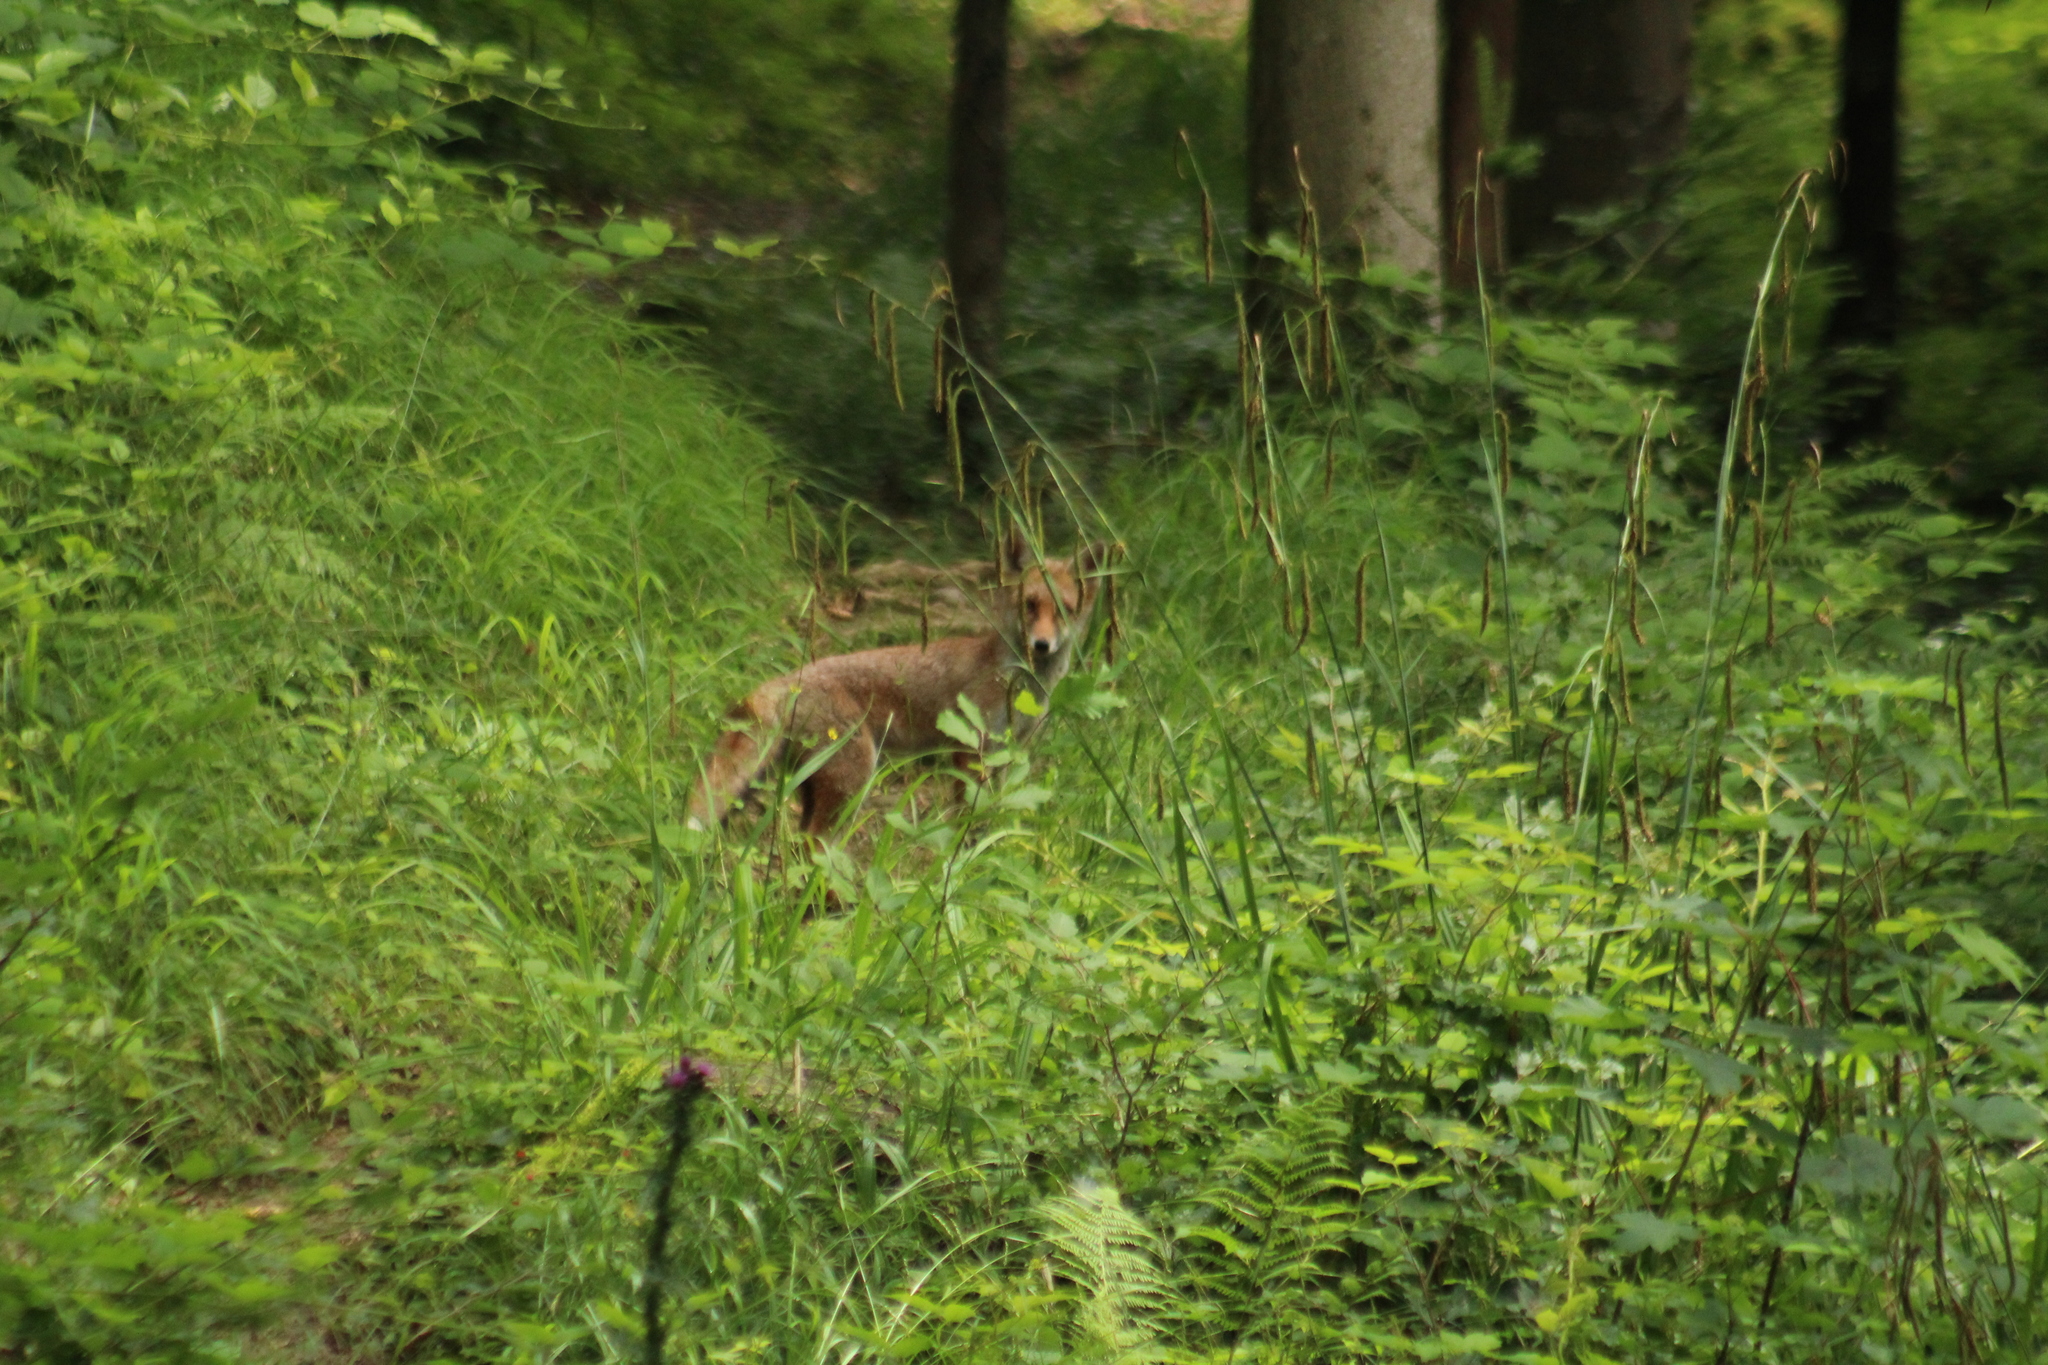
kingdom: Animalia
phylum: Chordata
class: Mammalia
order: Carnivora
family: Canidae
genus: Vulpes
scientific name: Vulpes vulpes
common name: Red fox
